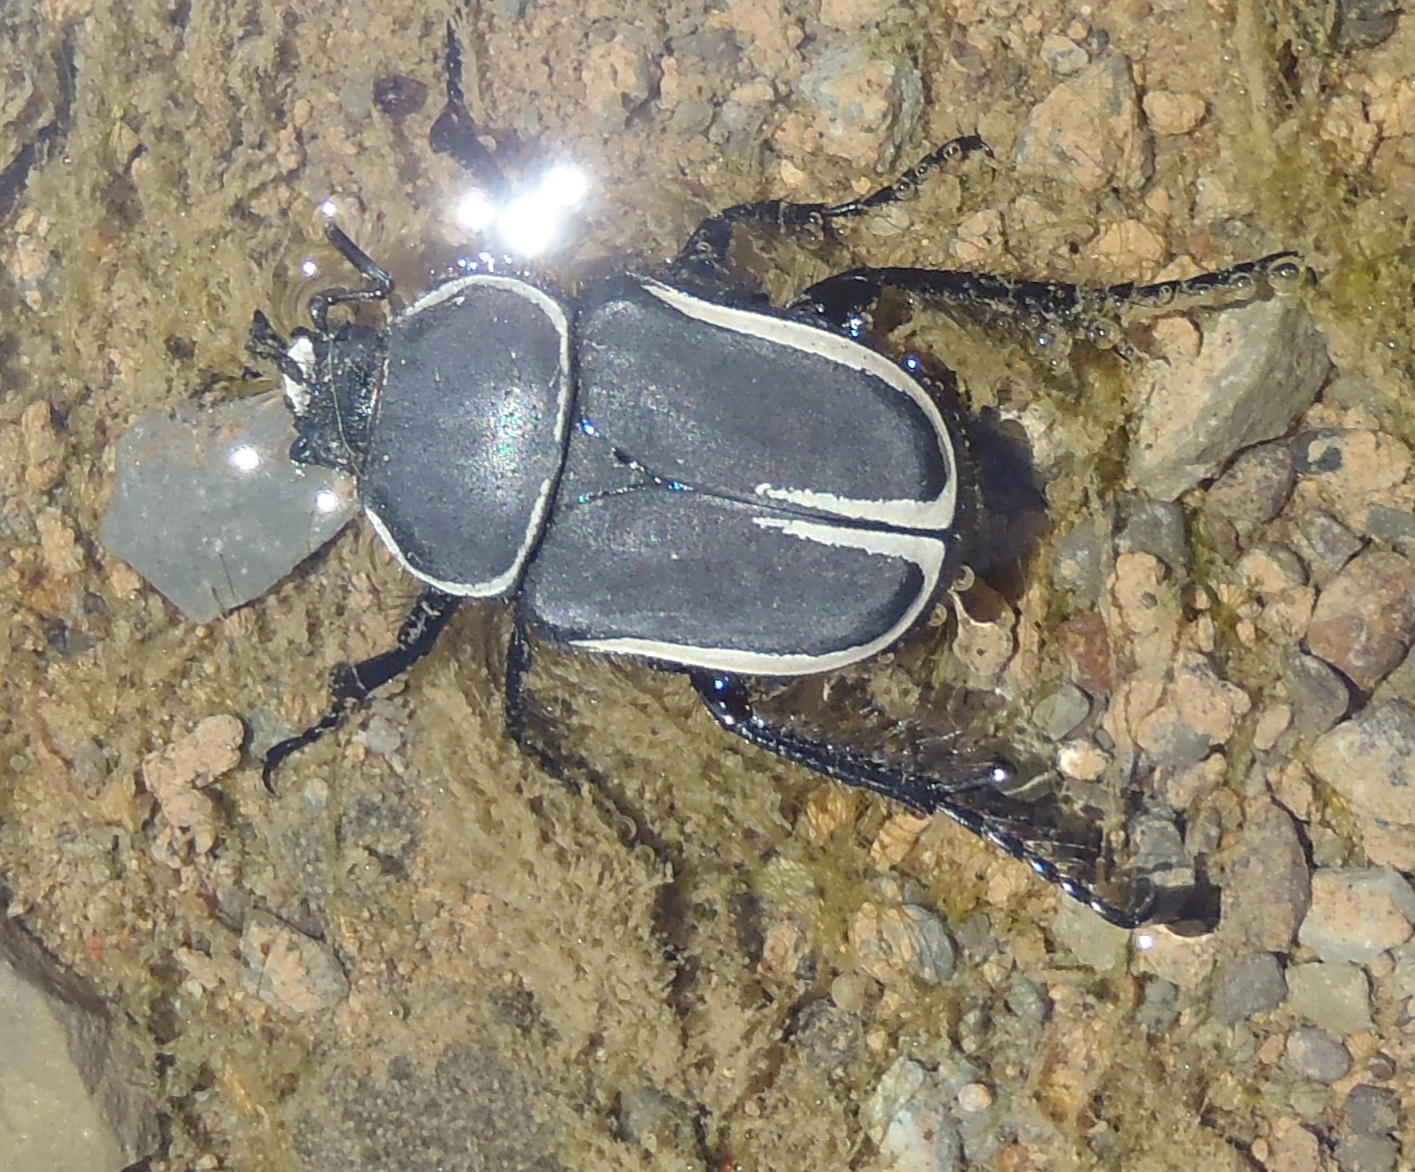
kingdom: Animalia
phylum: Arthropoda
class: Insecta
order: Coleoptera
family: Scarabaeidae
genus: Ichnestoma
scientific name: Ichnestoma rostrata
